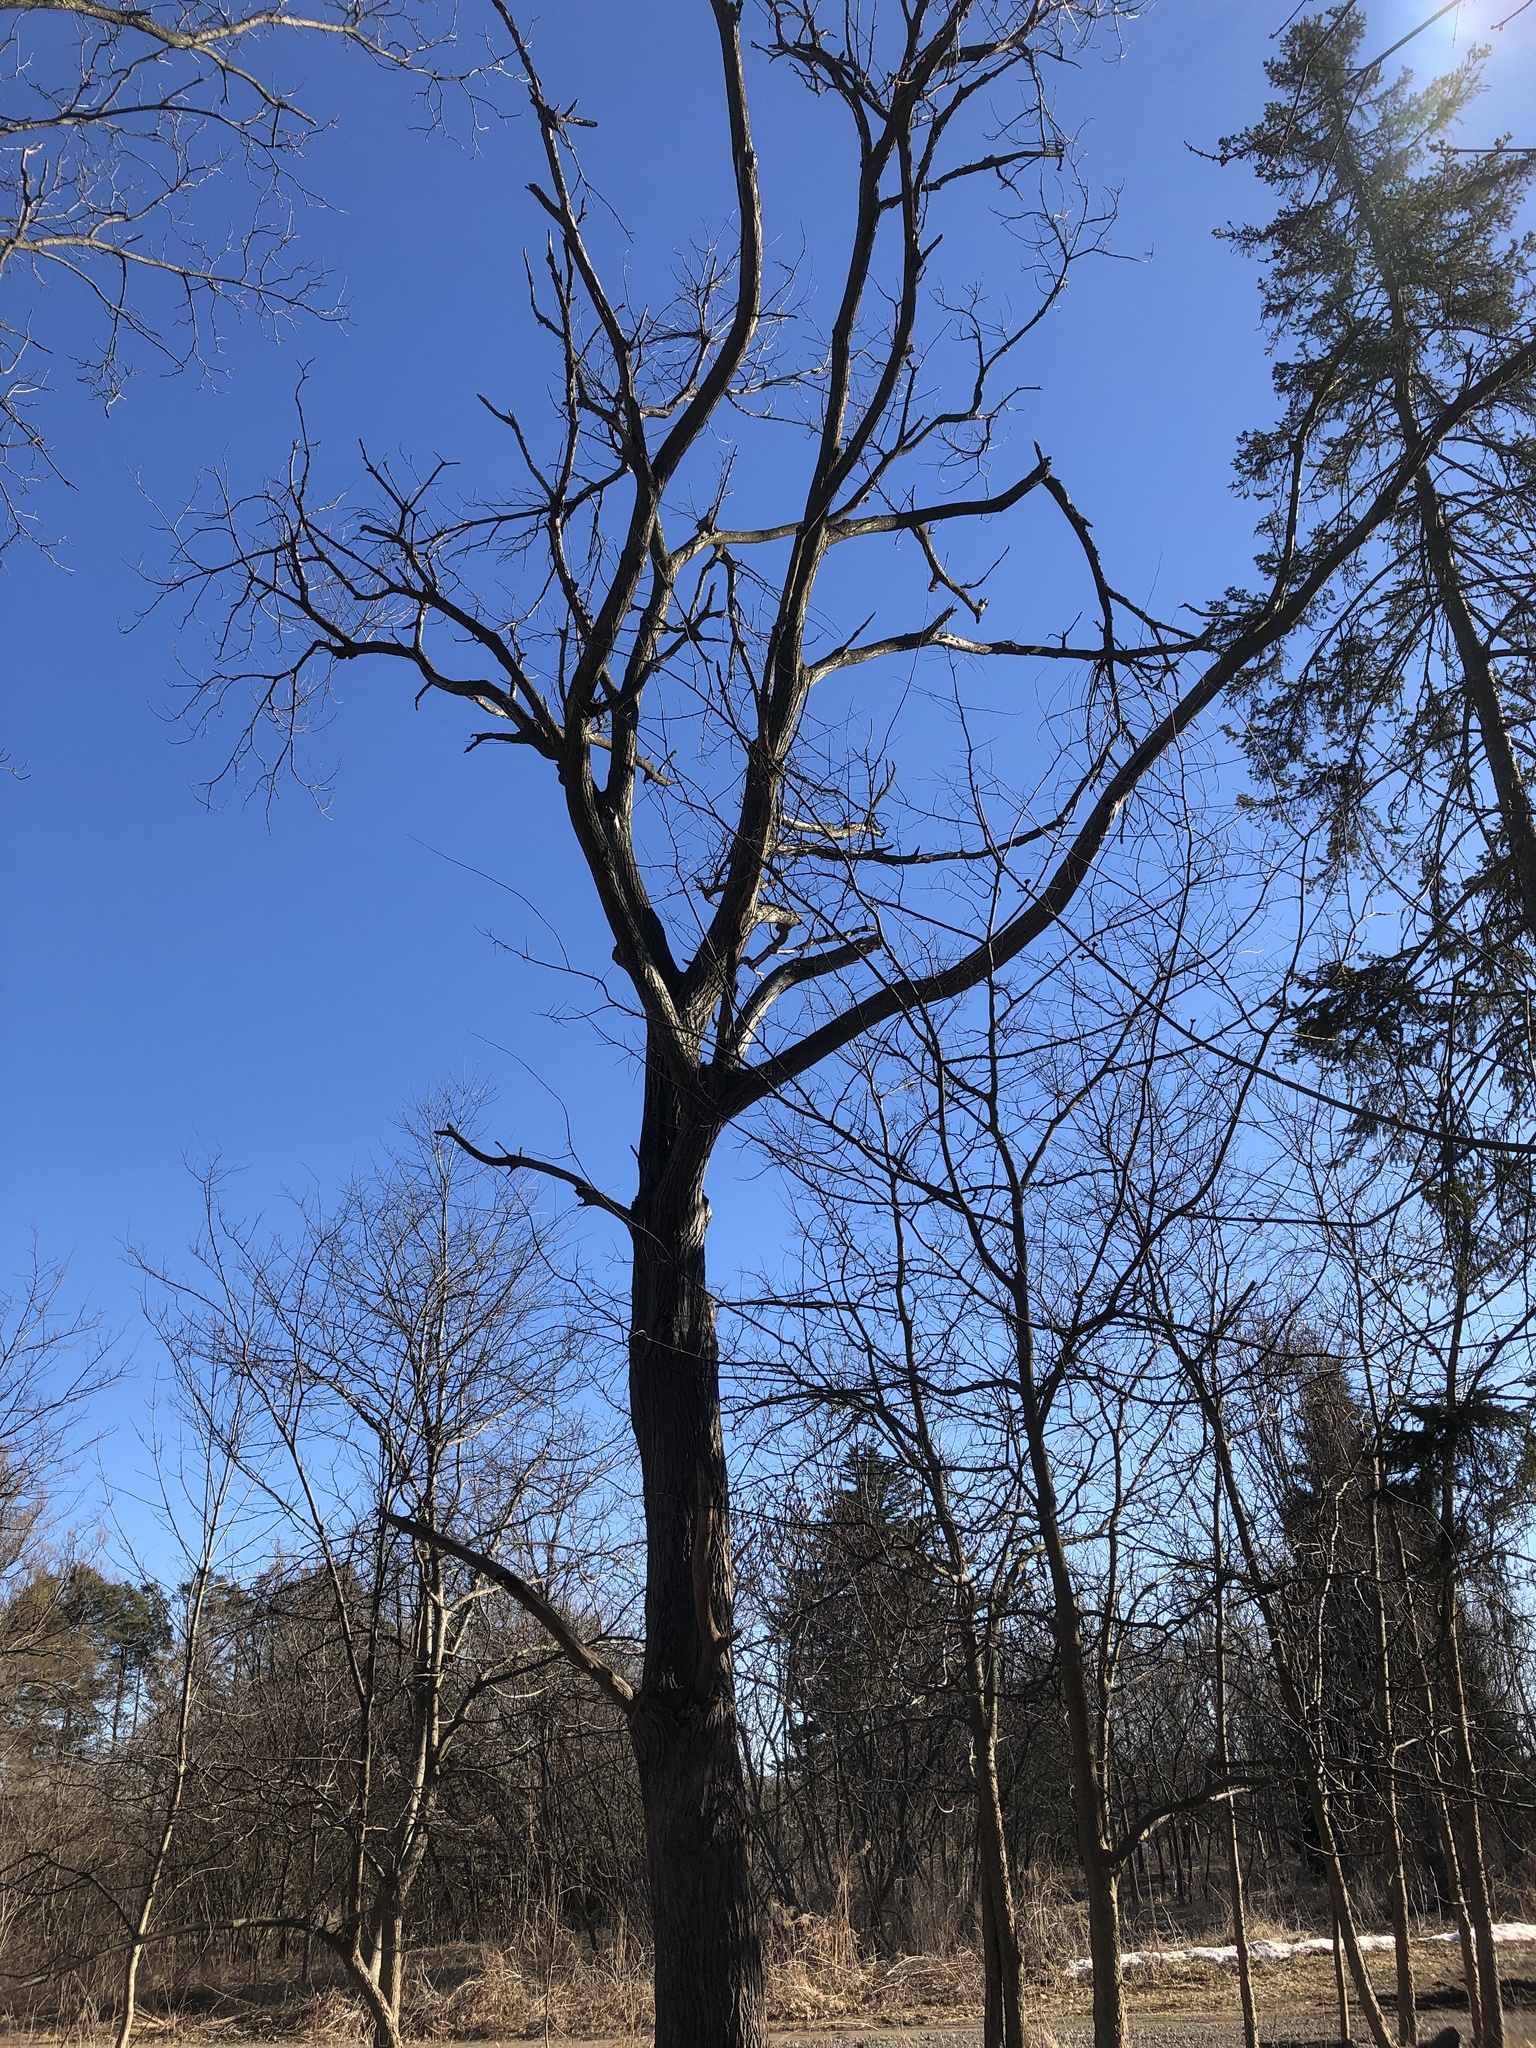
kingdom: Plantae
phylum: Tracheophyta
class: Magnoliopsida
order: Fagales
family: Juglandaceae
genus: Juglans
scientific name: Juglans cinerea
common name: Butternut
